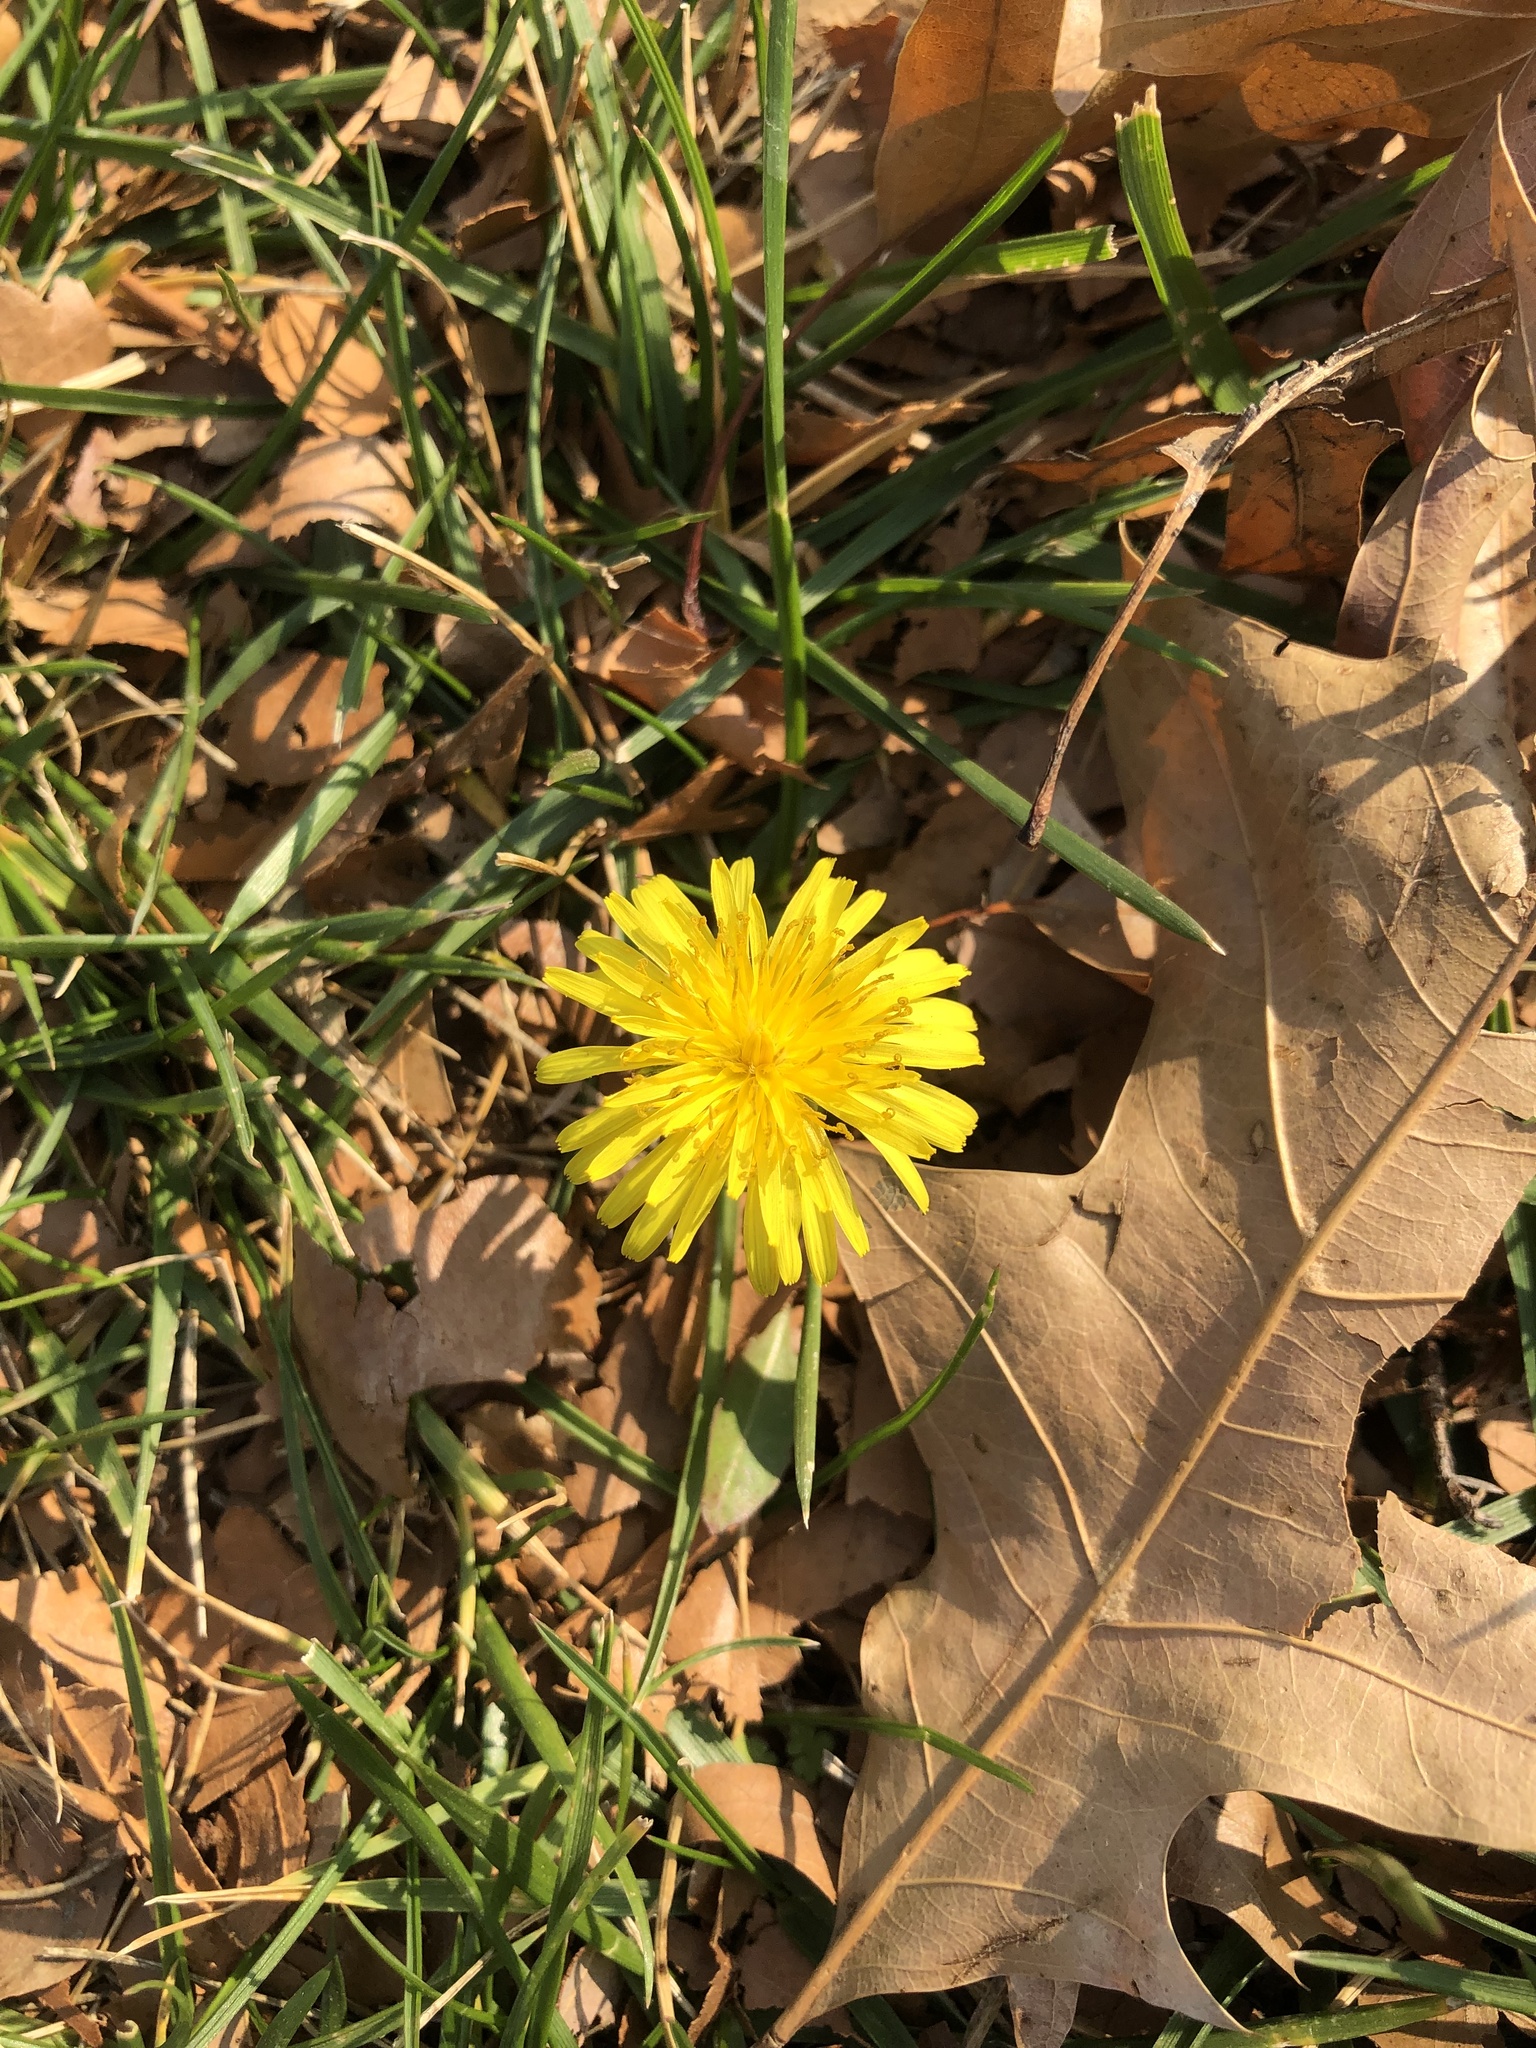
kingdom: Plantae
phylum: Tracheophyta
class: Magnoliopsida
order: Asterales
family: Asteraceae
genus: Taraxacum
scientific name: Taraxacum
